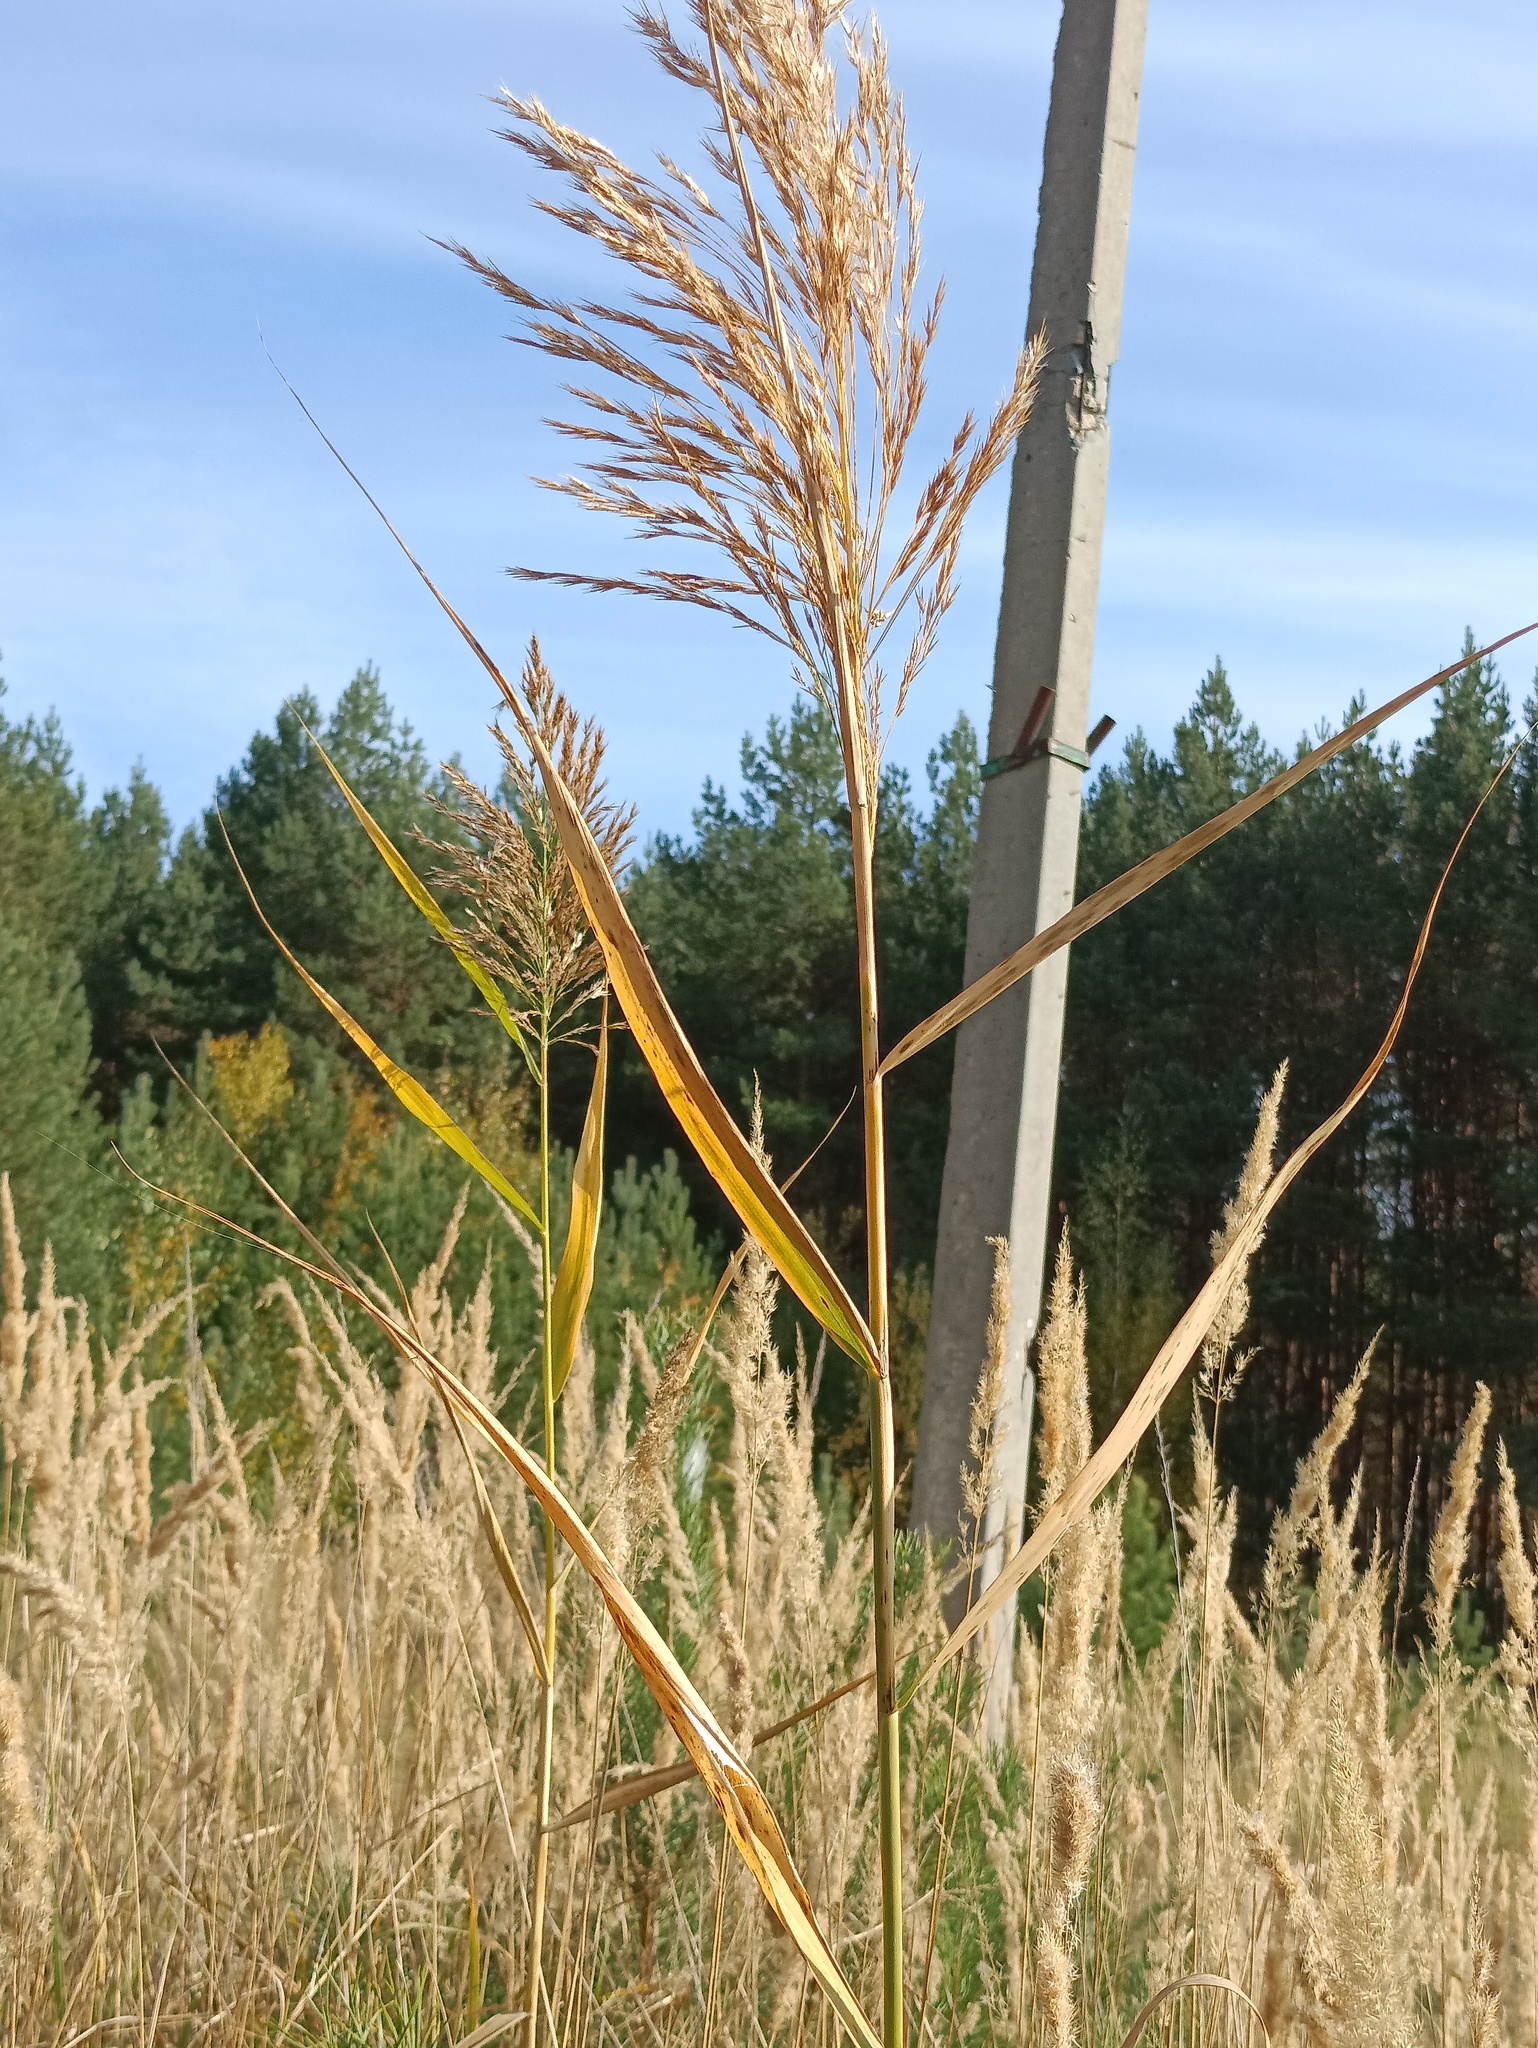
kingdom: Plantae
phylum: Tracheophyta
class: Liliopsida
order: Poales
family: Poaceae
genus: Phragmites
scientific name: Phragmites australis
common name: Common reed
